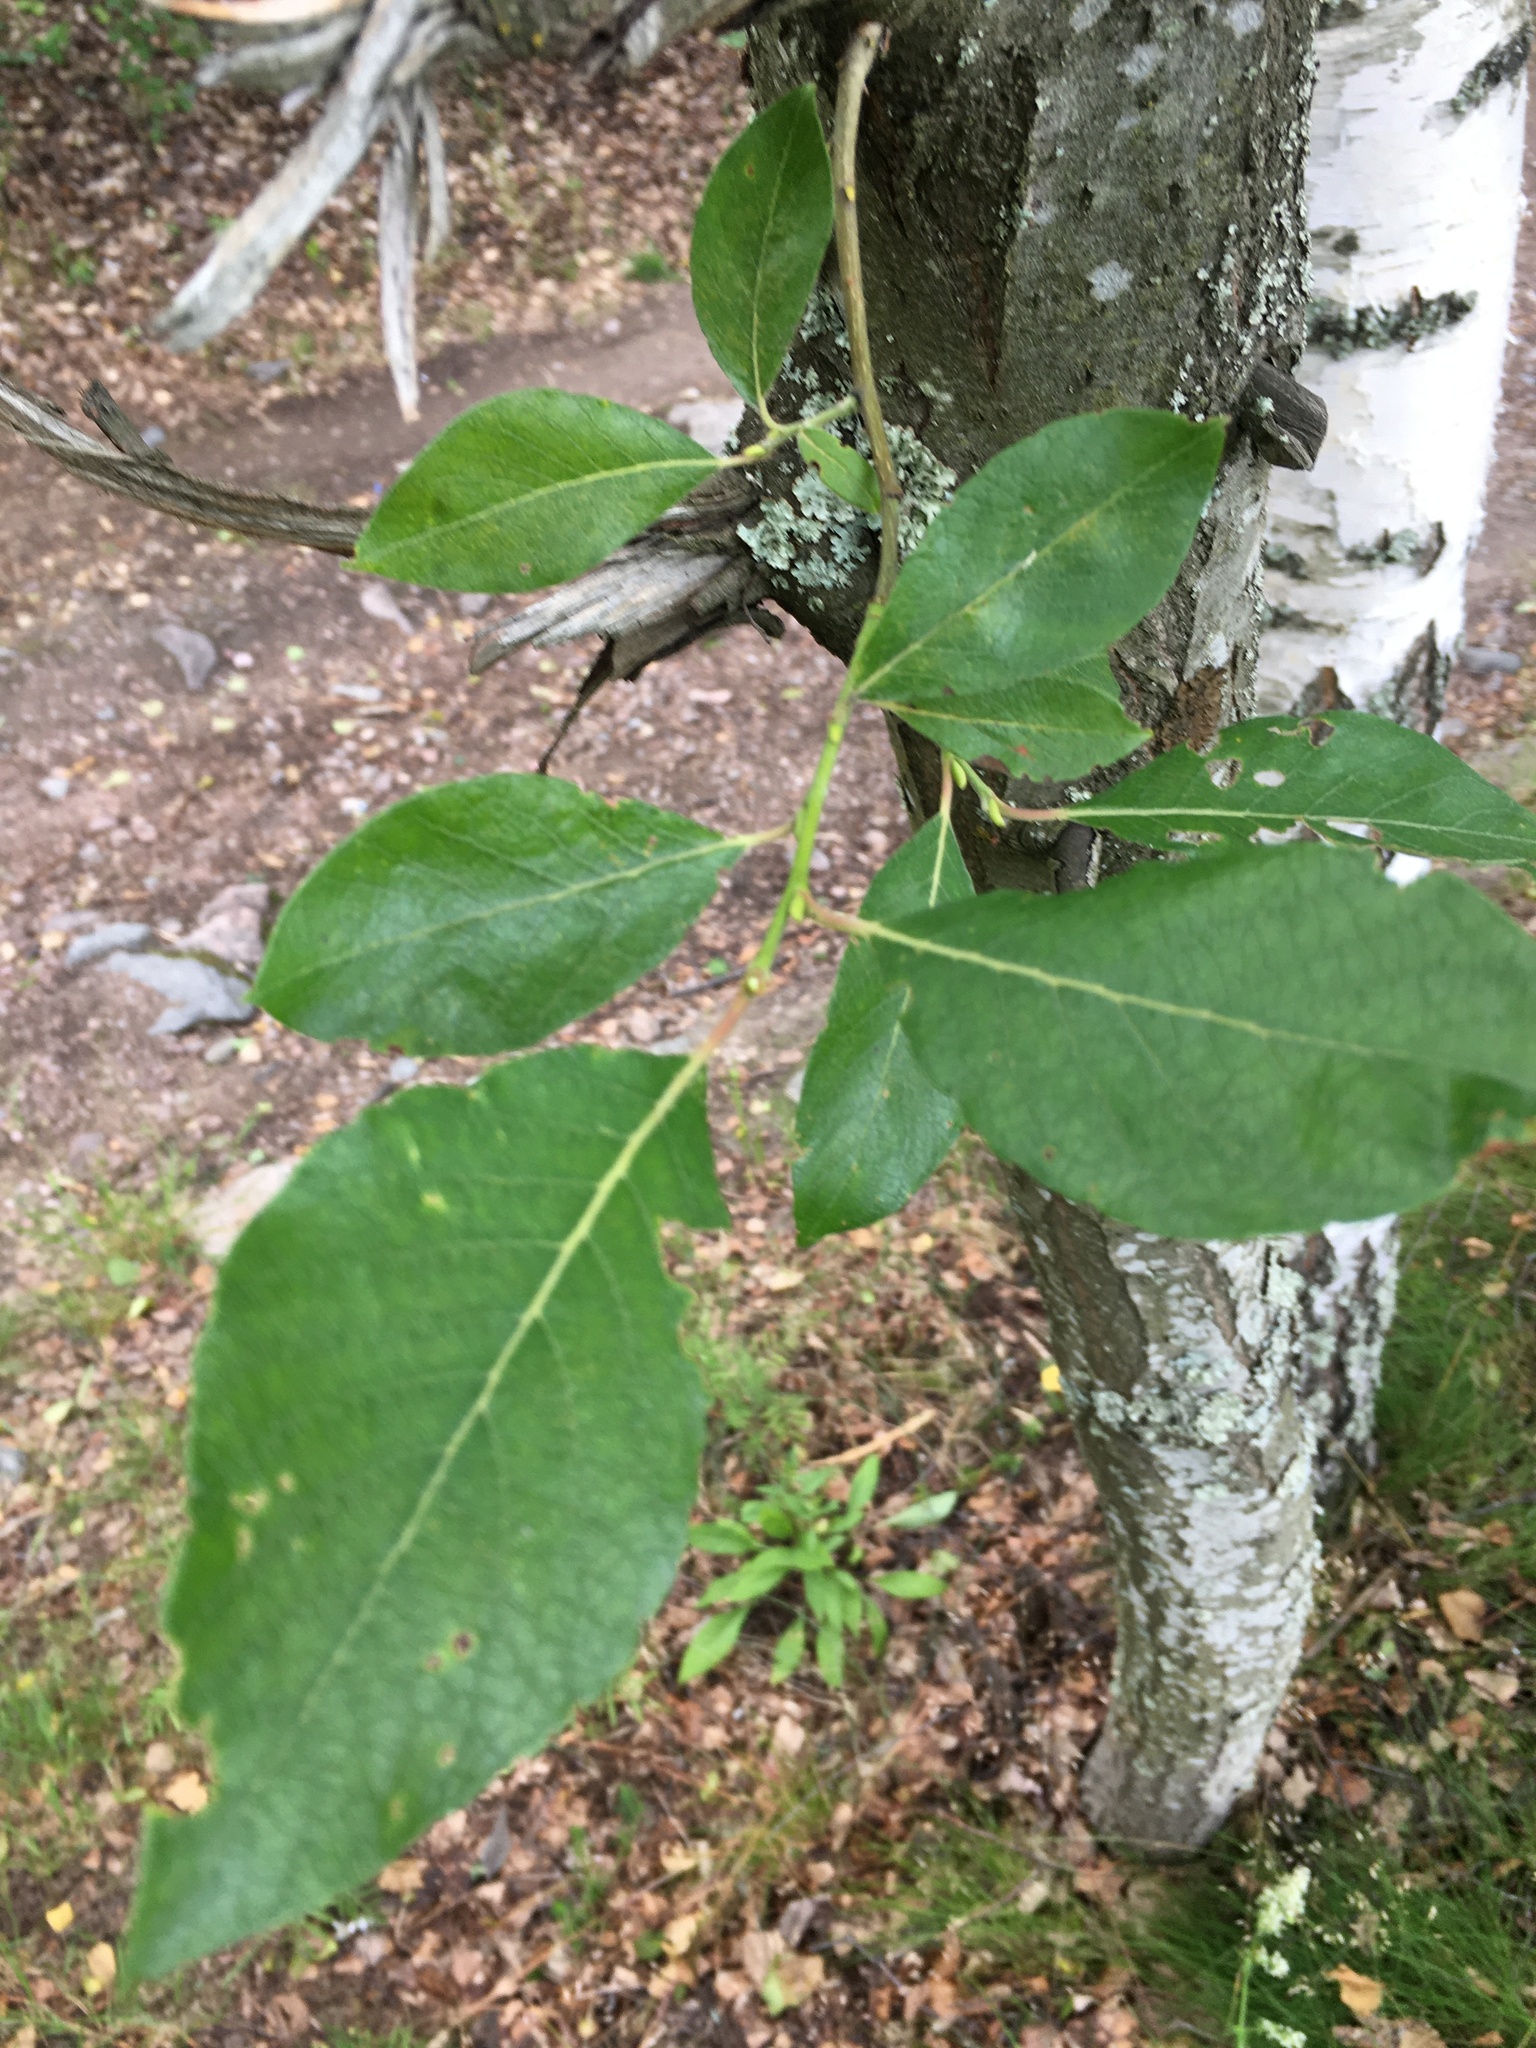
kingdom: Plantae
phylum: Tracheophyta
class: Magnoliopsida
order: Malpighiales
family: Salicaceae
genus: Salix
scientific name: Salix caprea
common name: Goat willow
